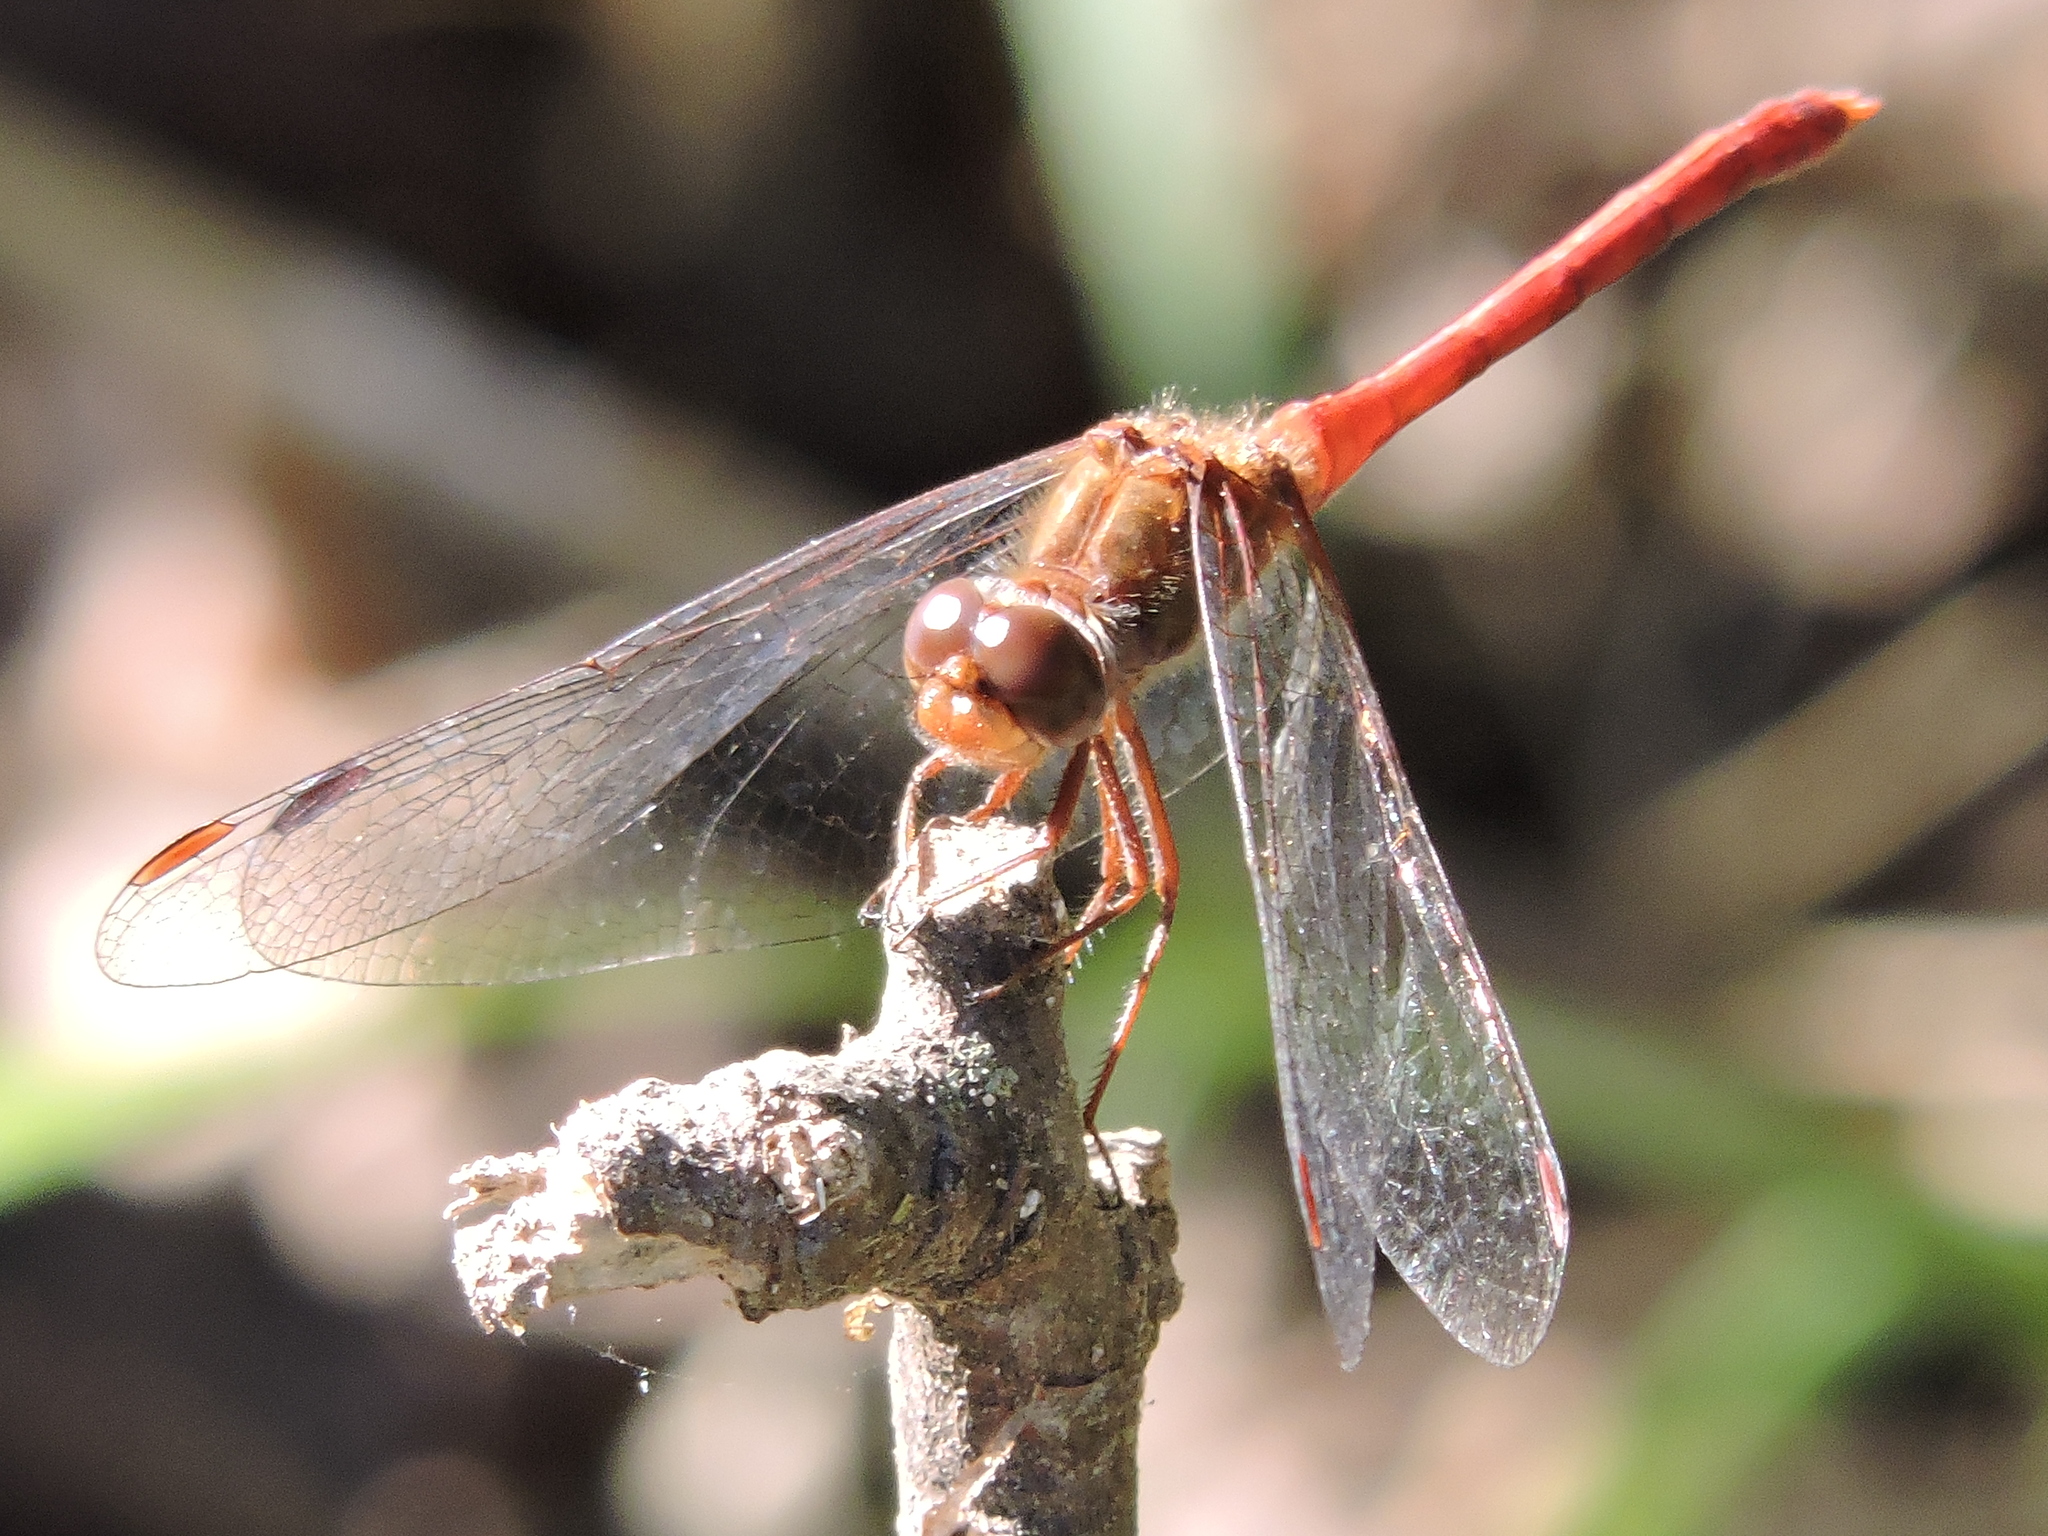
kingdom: Animalia
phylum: Arthropoda
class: Insecta
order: Odonata
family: Libellulidae
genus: Sympetrum
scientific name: Sympetrum vicinum
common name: Autumn meadowhawk
